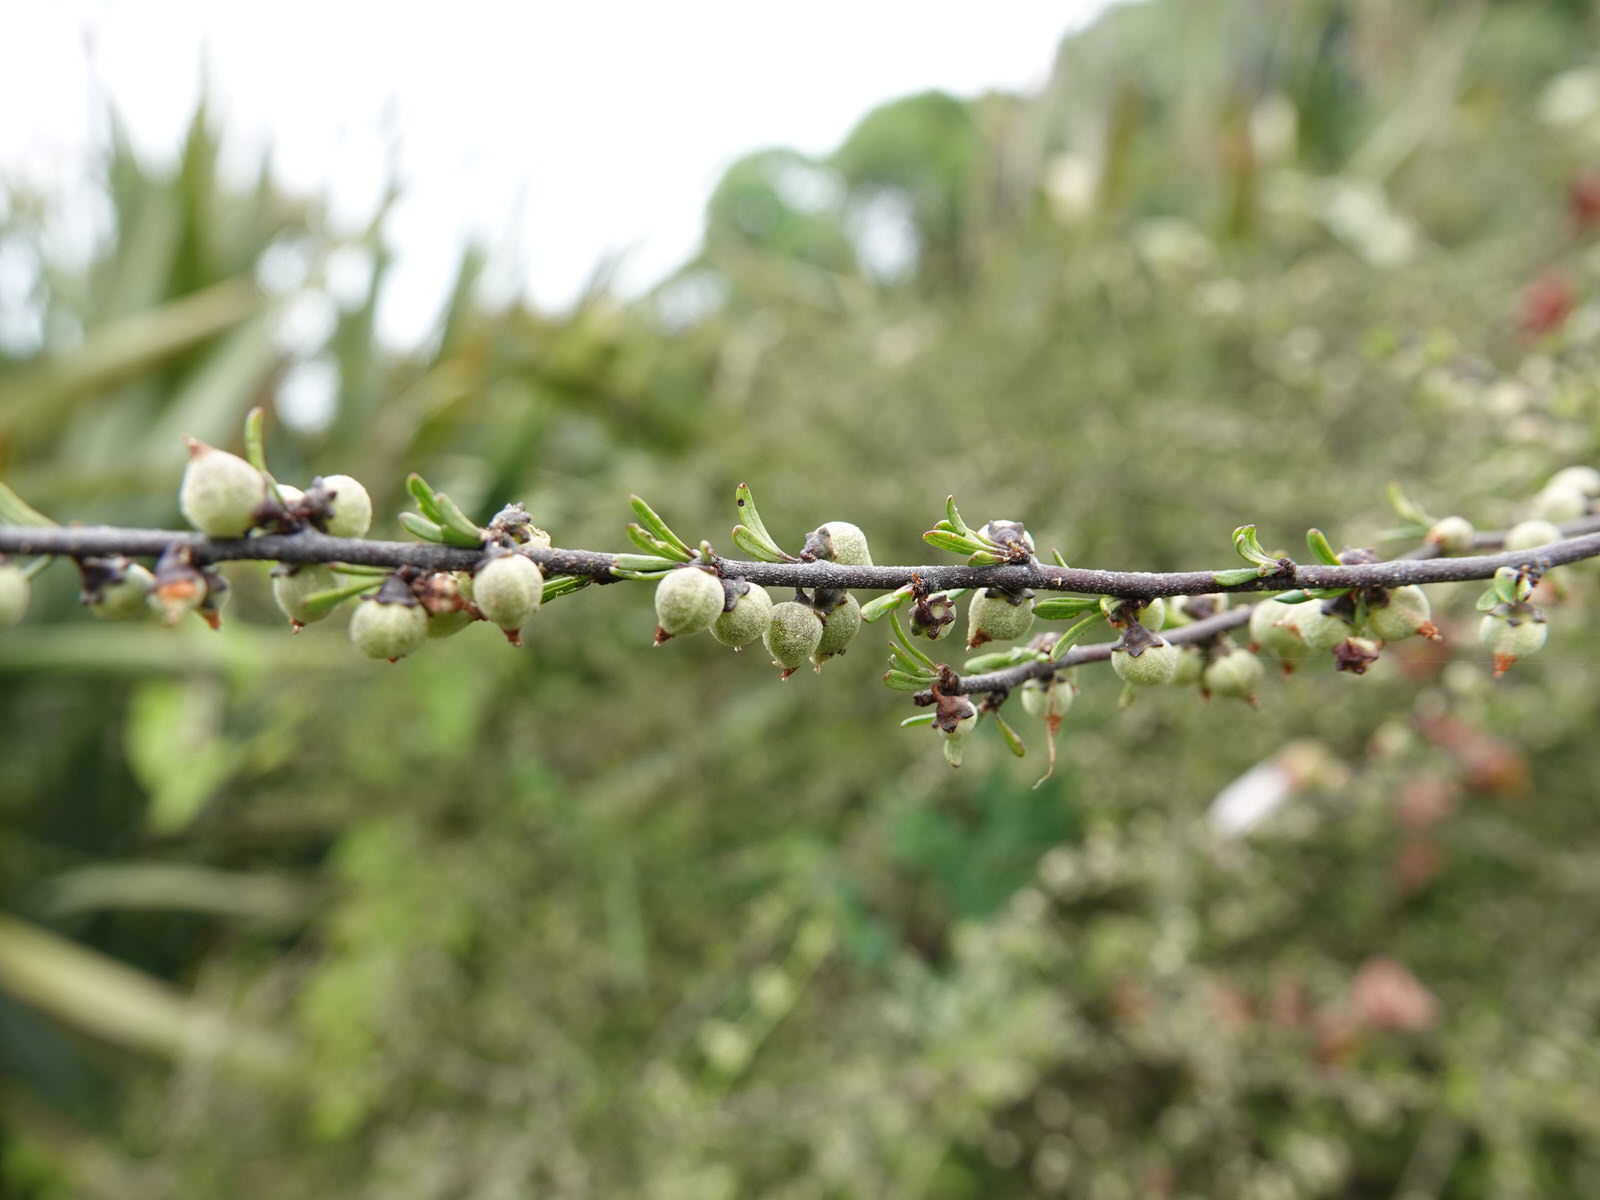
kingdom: Plantae
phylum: Tracheophyta
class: Magnoliopsida
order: Malvales
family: Malvaceae
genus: Plagianthus
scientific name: Plagianthus divaricatus
